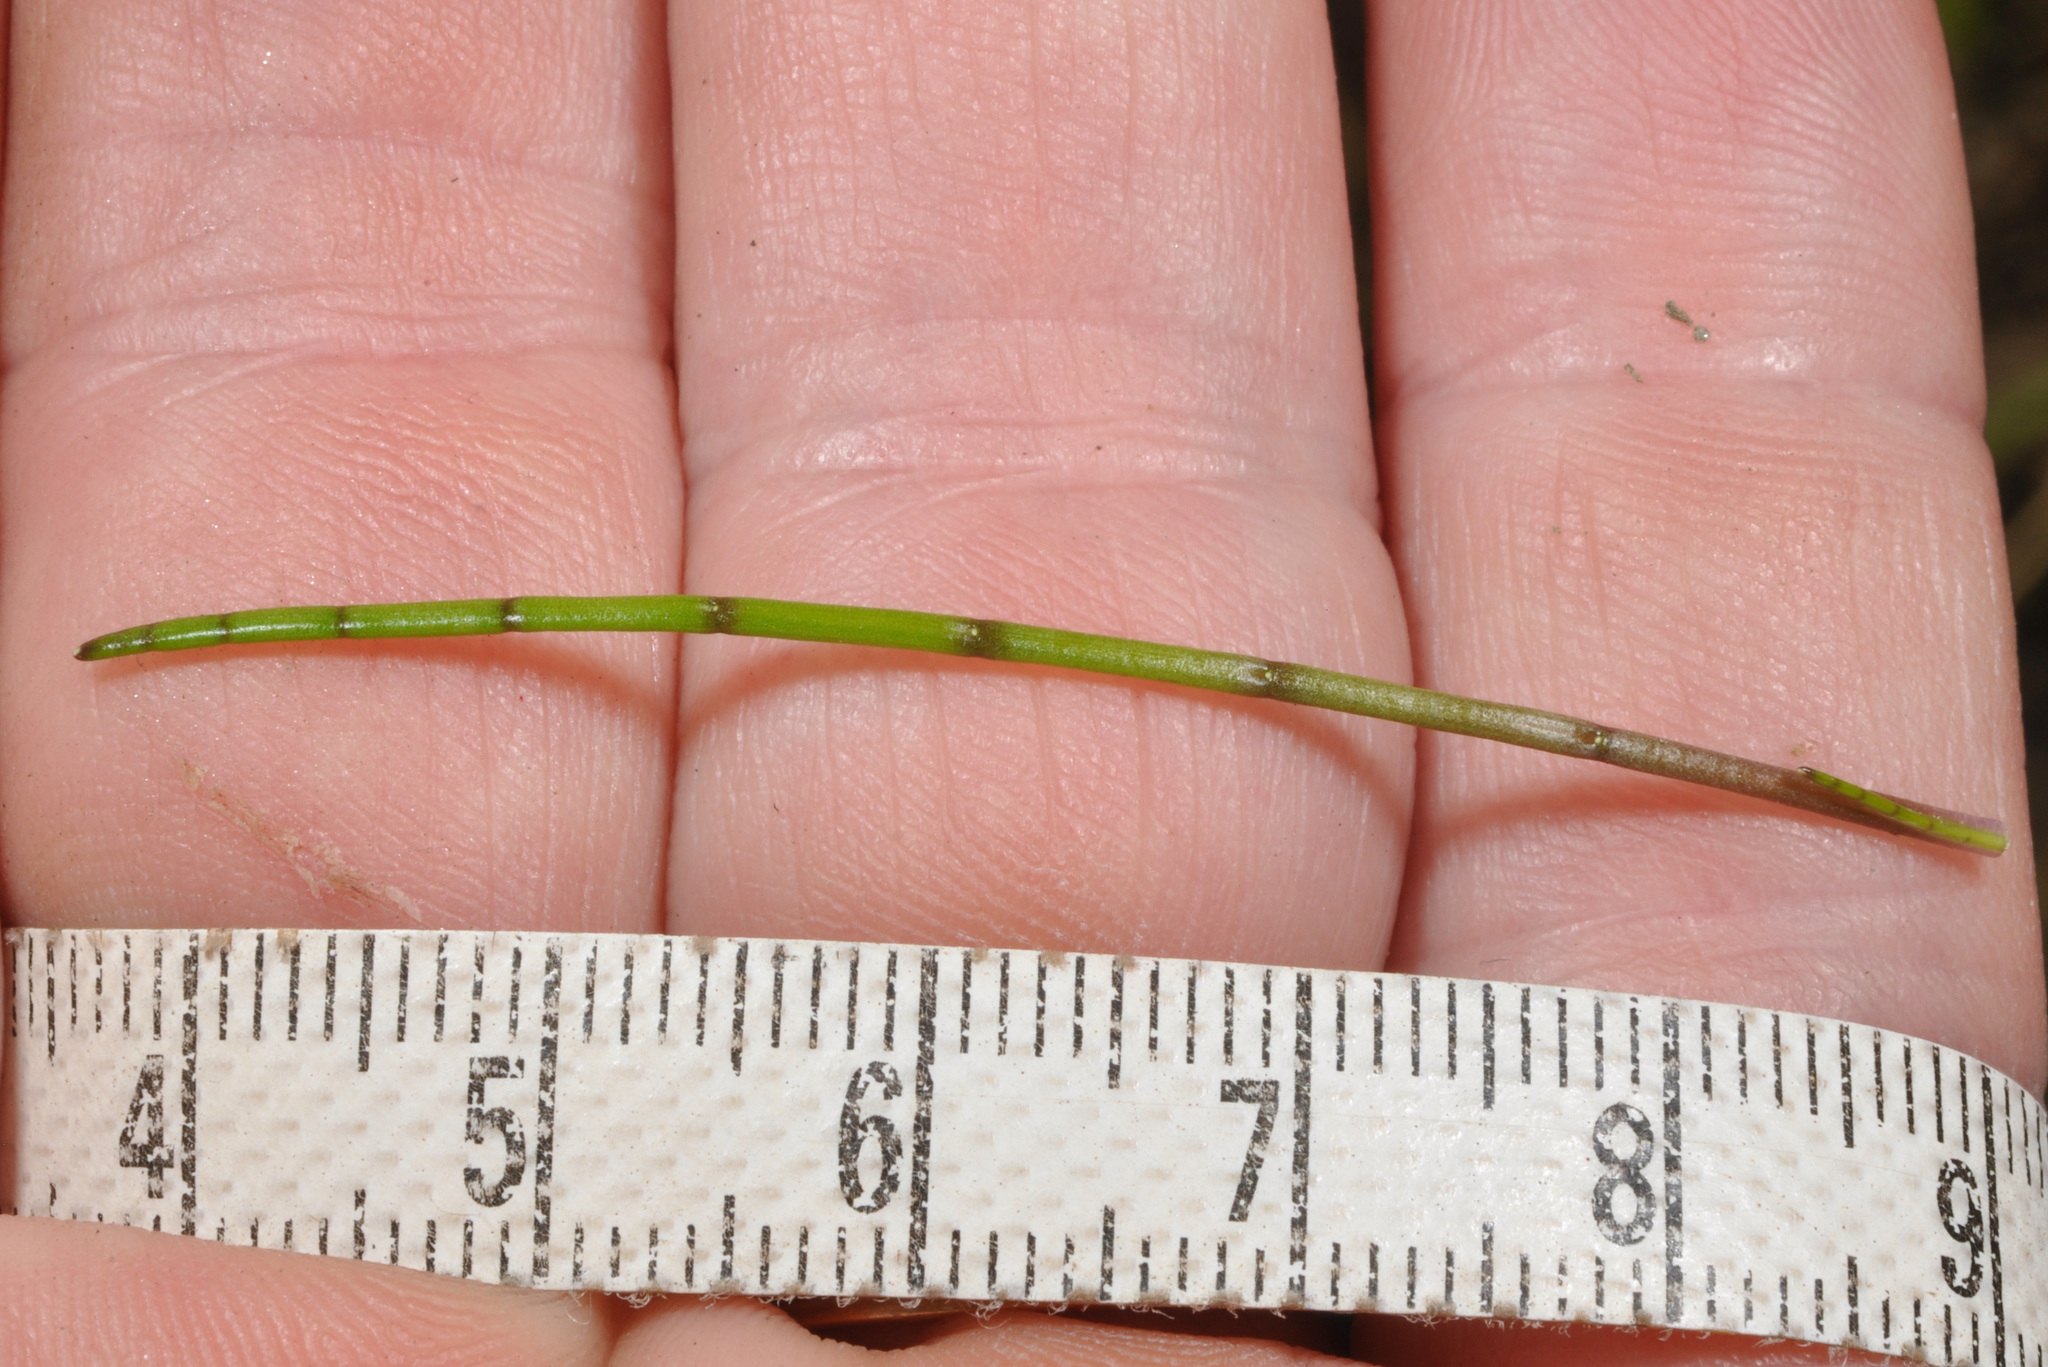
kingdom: Plantae
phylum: Tracheophyta
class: Magnoliopsida
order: Apiales
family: Apiaceae
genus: Lilaeopsis
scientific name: Lilaeopsis novae-zelandiae
